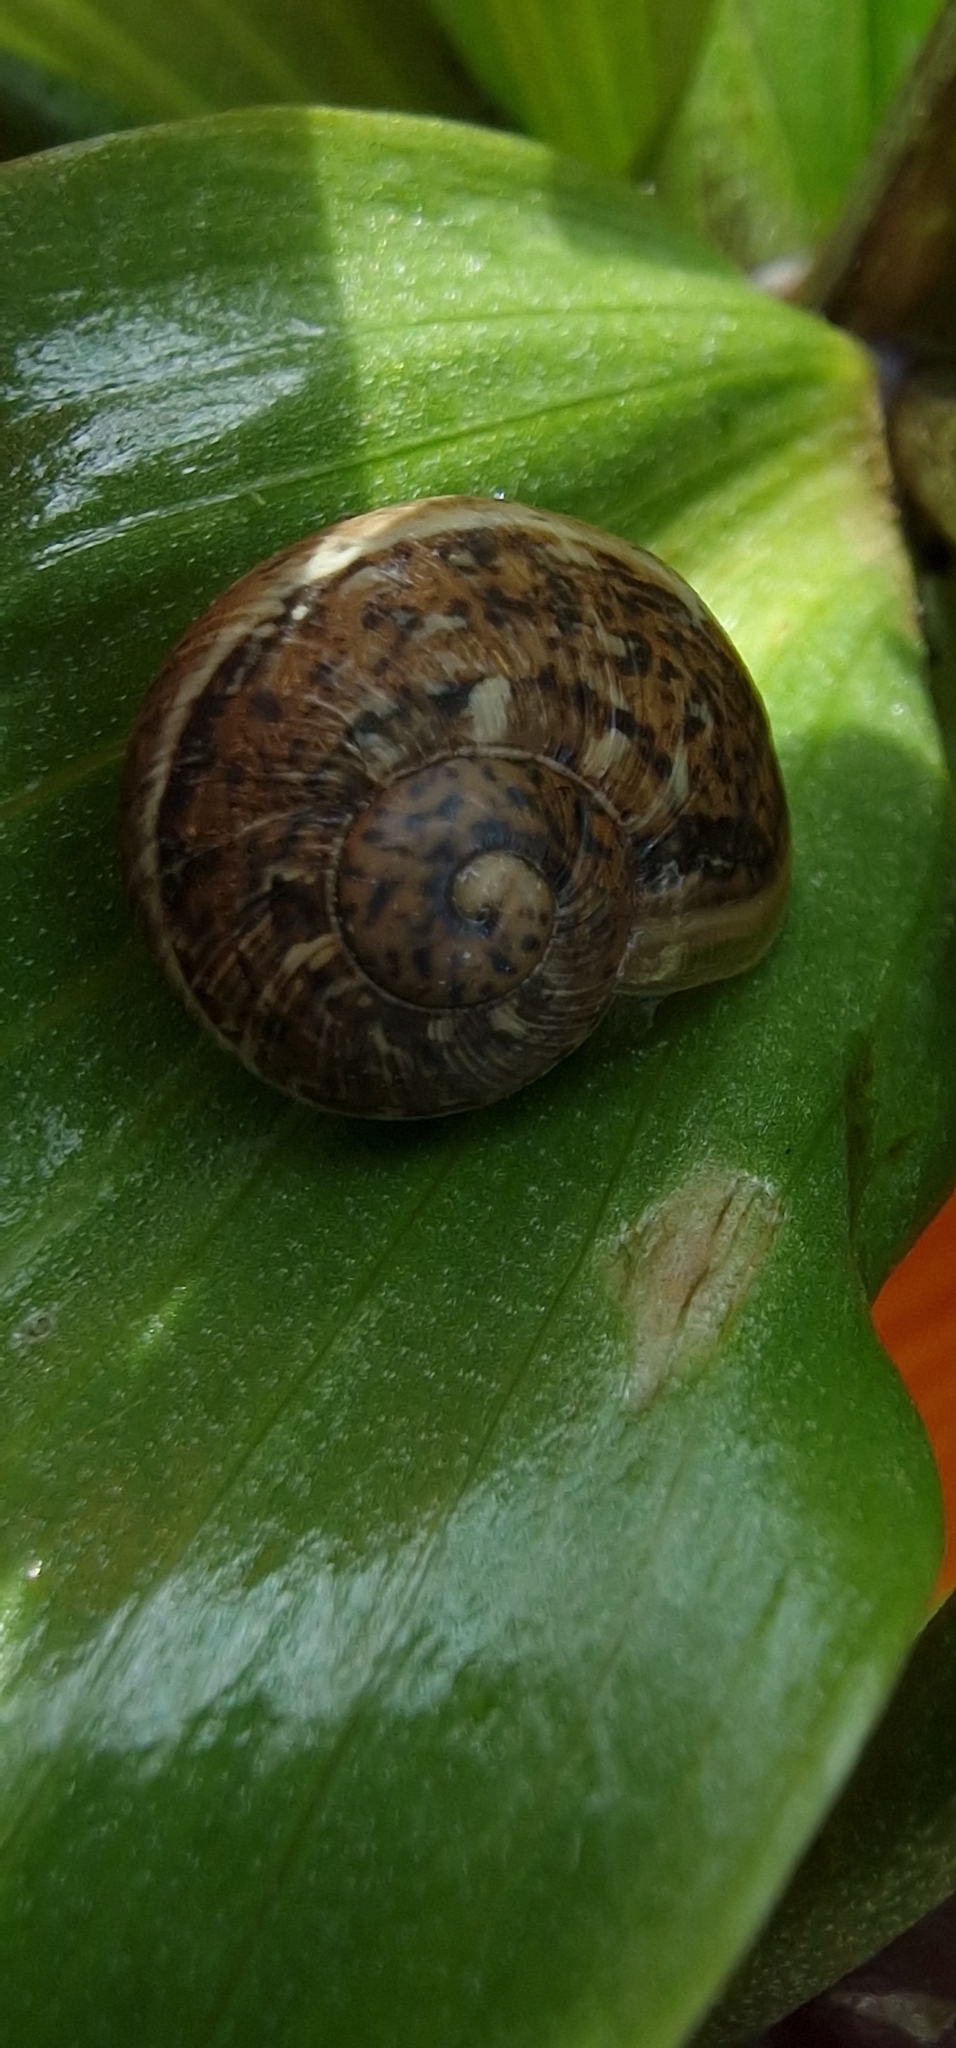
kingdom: Animalia
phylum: Mollusca
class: Gastropoda
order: Stylommatophora
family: Helicidae
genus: Cornu
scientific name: Cornu aspersum
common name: Brown garden snail
